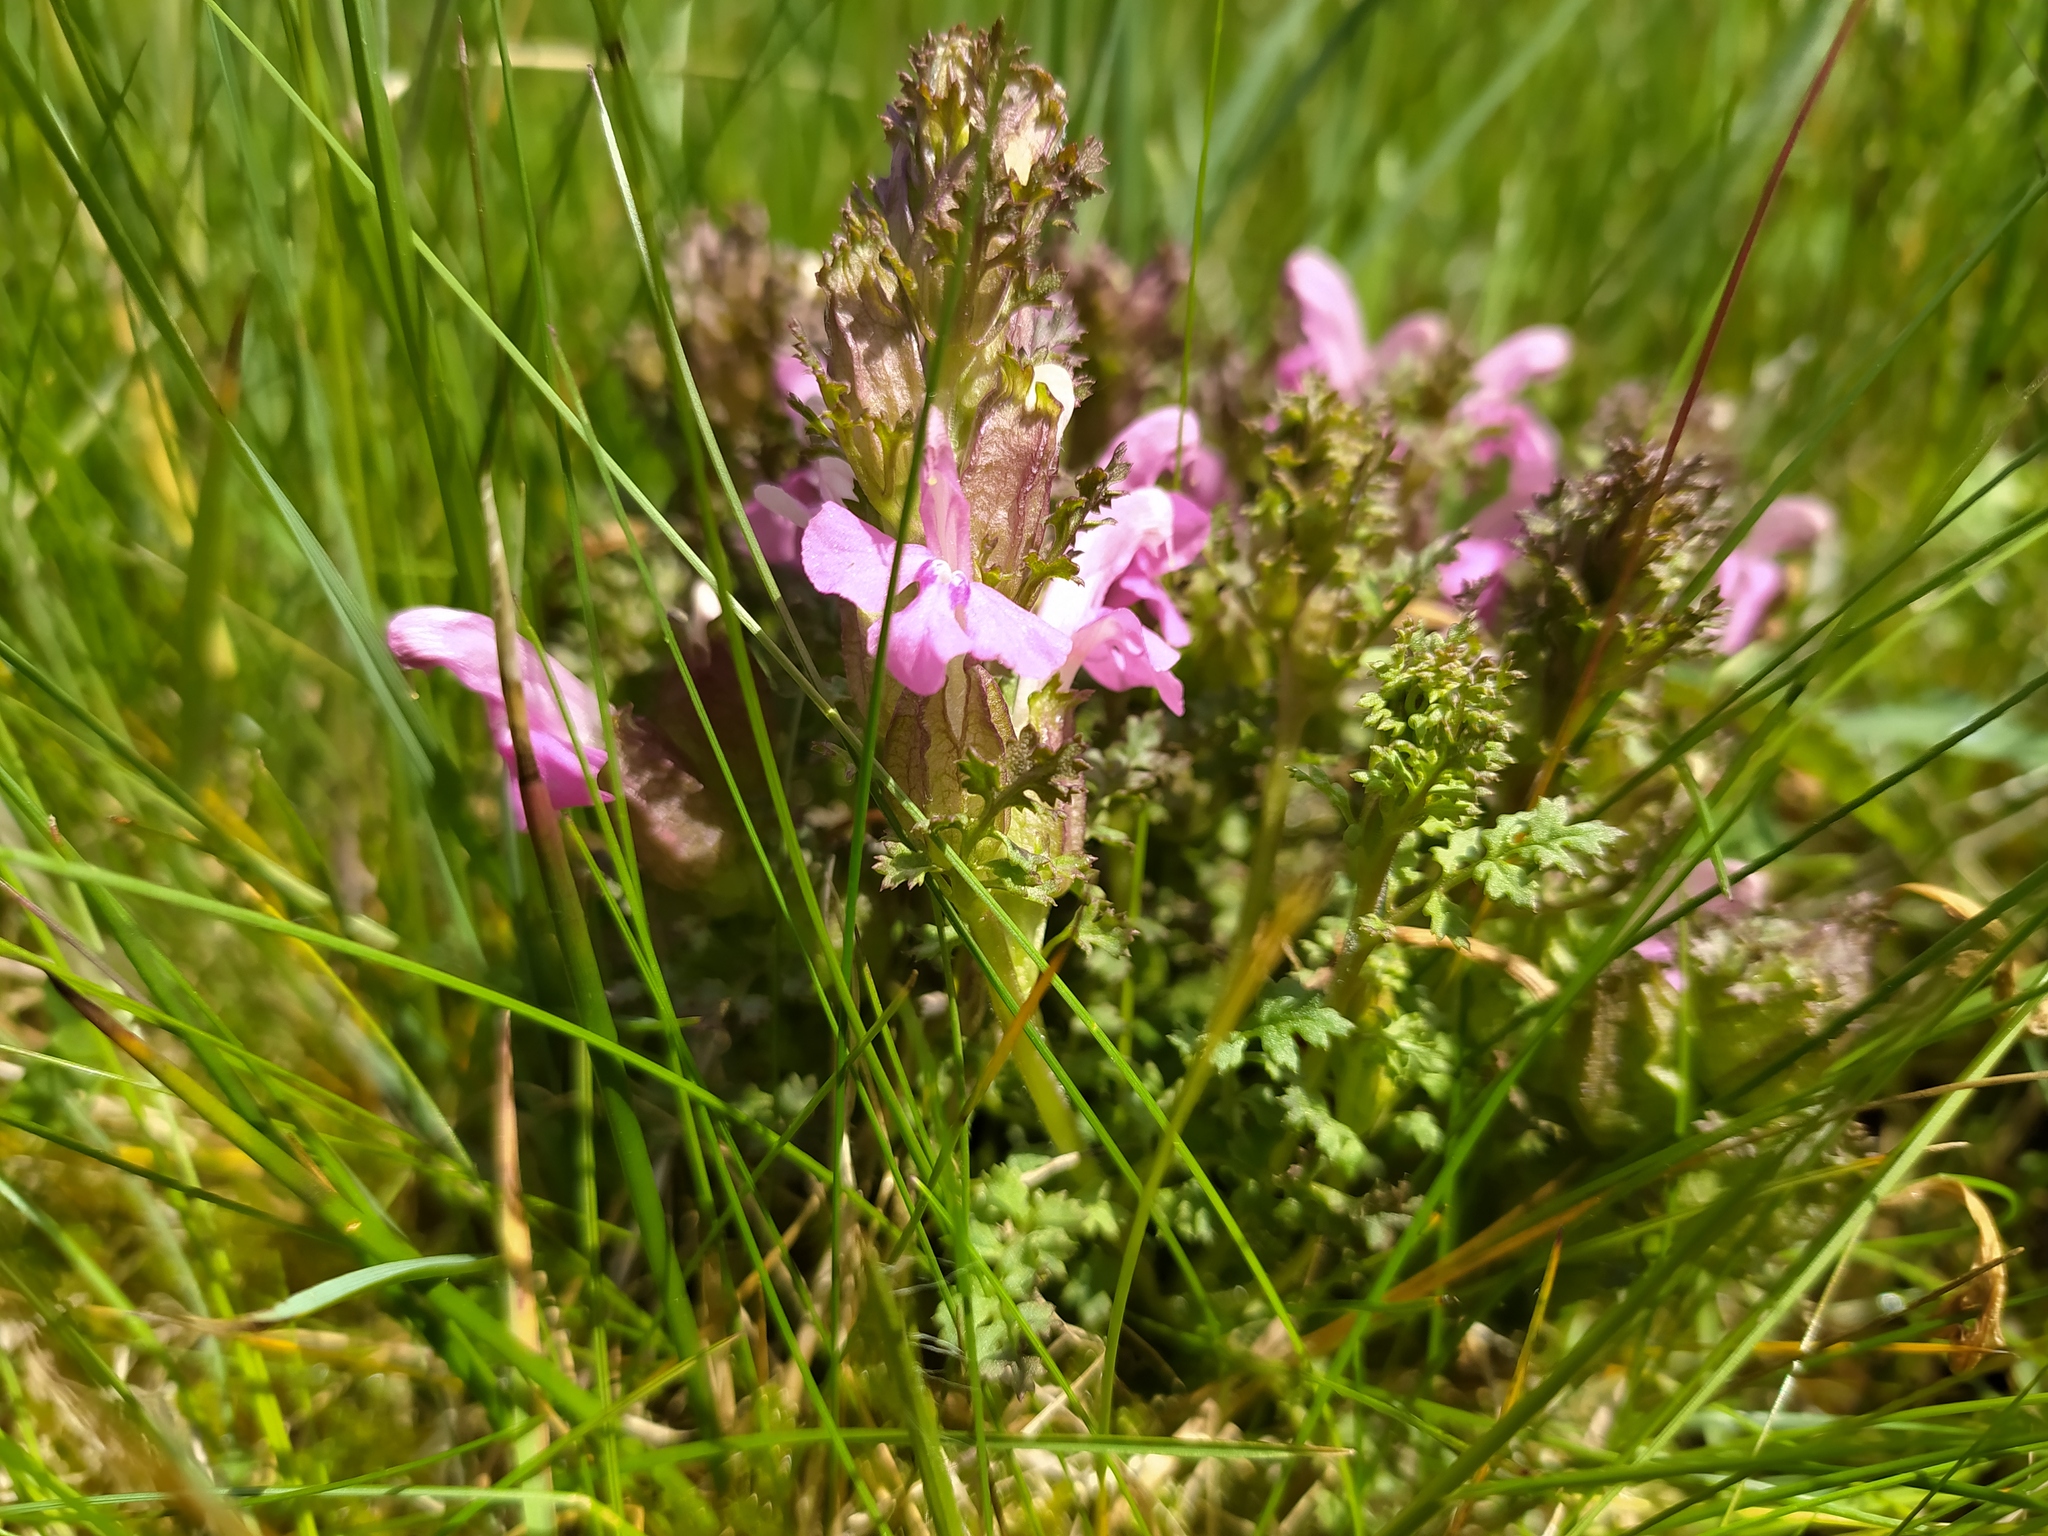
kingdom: Plantae
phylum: Tracheophyta
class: Magnoliopsida
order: Lamiales
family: Orobanchaceae
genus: Pedicularis
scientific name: Pedicularis sylvatica
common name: Lousewort
